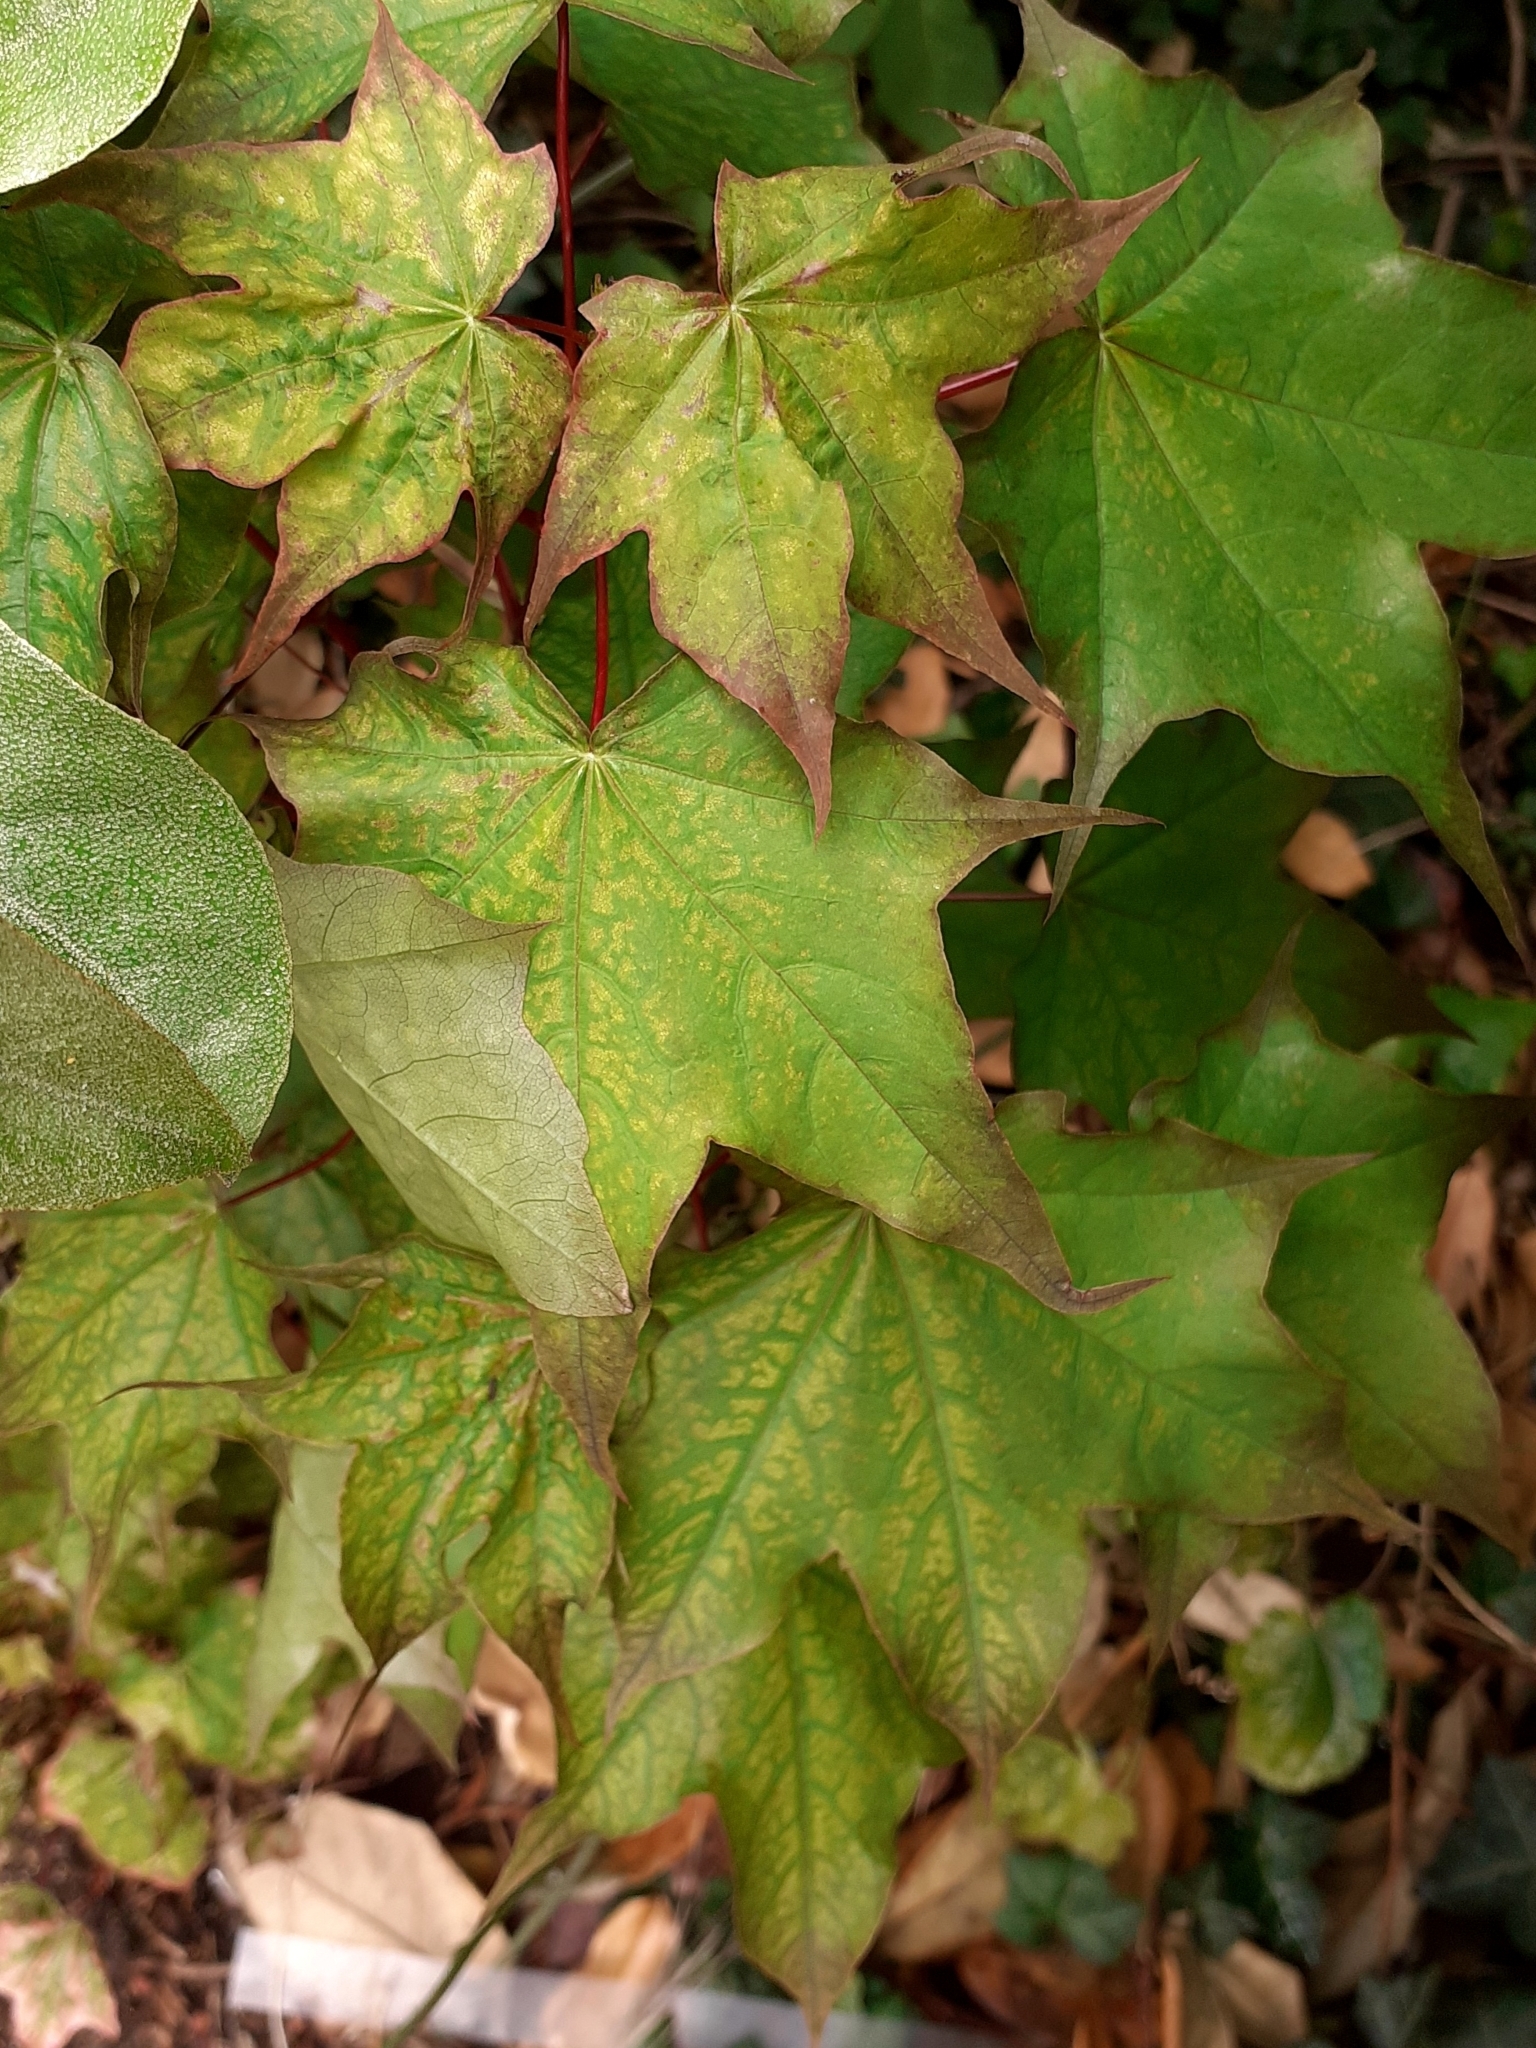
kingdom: Plantae
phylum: Tracheophyta
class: Magnoliopsida
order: Sapindales
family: Sapindaceae
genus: Acer
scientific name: Acer cappadocicum
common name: Cappadocian maple
